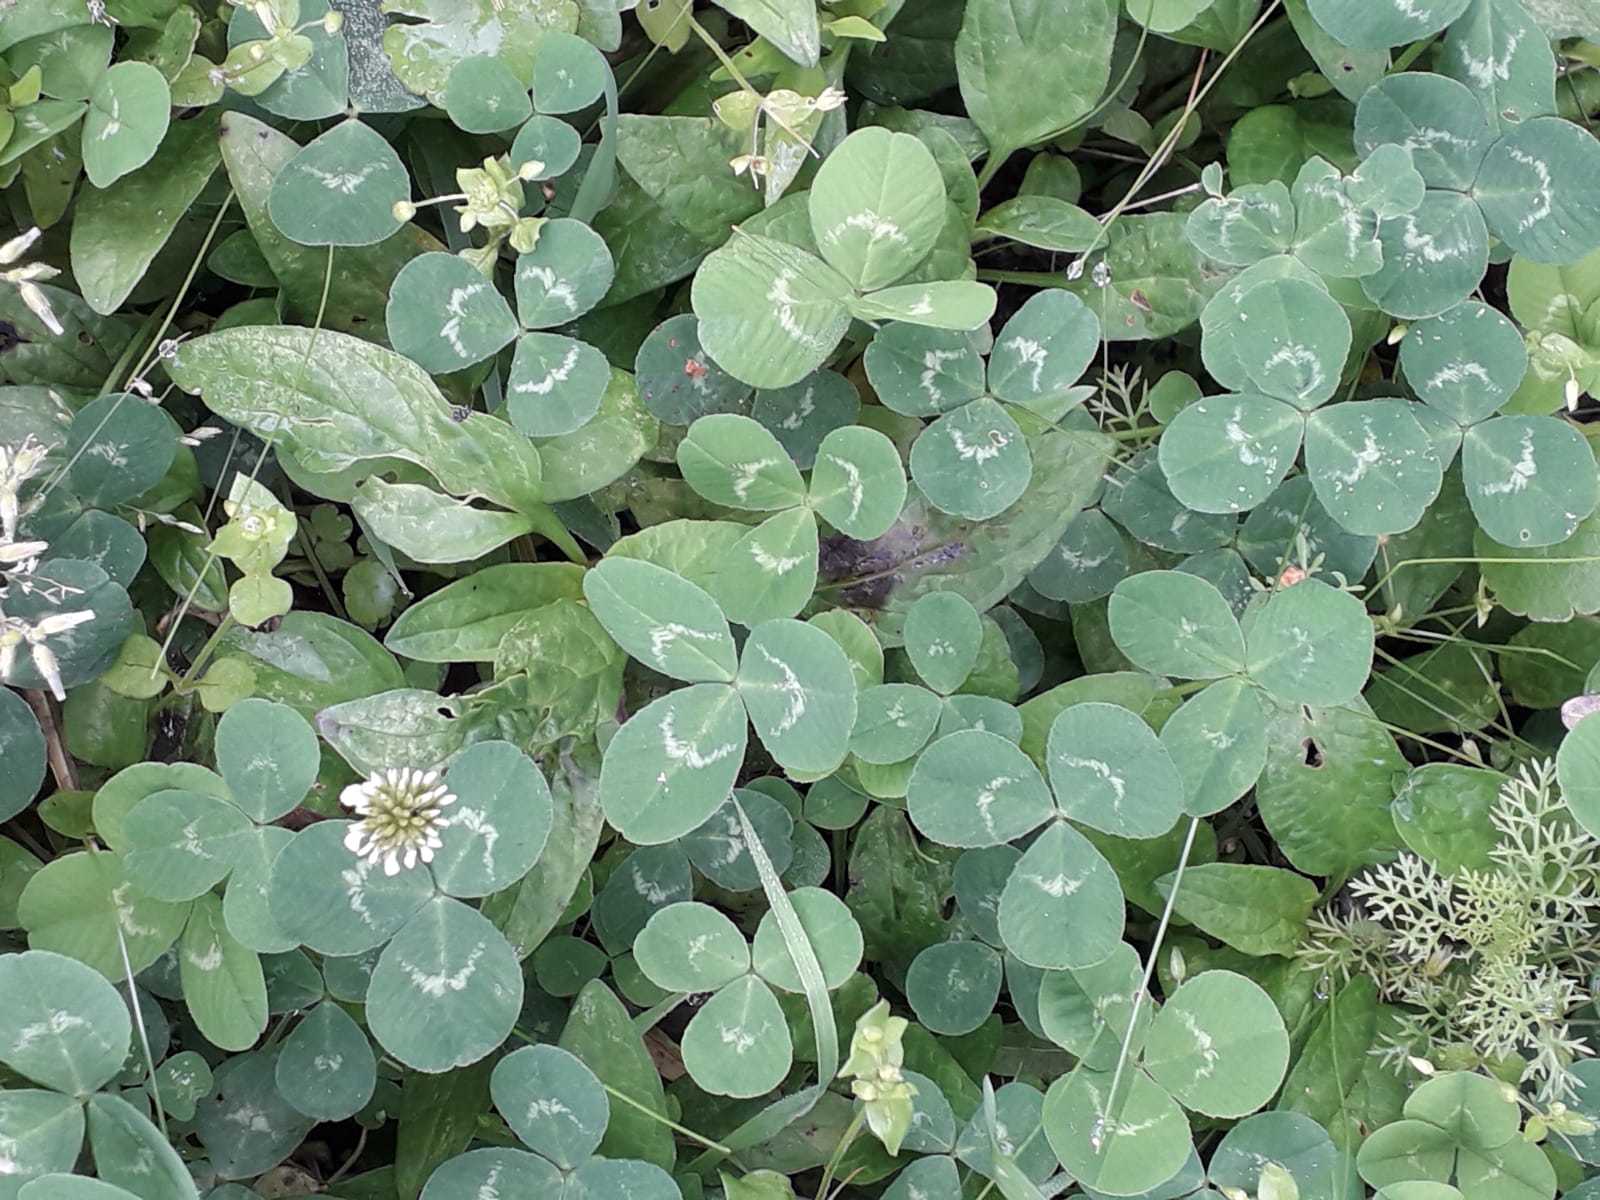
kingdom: Plantae
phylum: Tracheophyta
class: Magnoliopsida
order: Fabales
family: Fabaceae
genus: Trifolium
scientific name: Trifolium repens
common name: White clover
